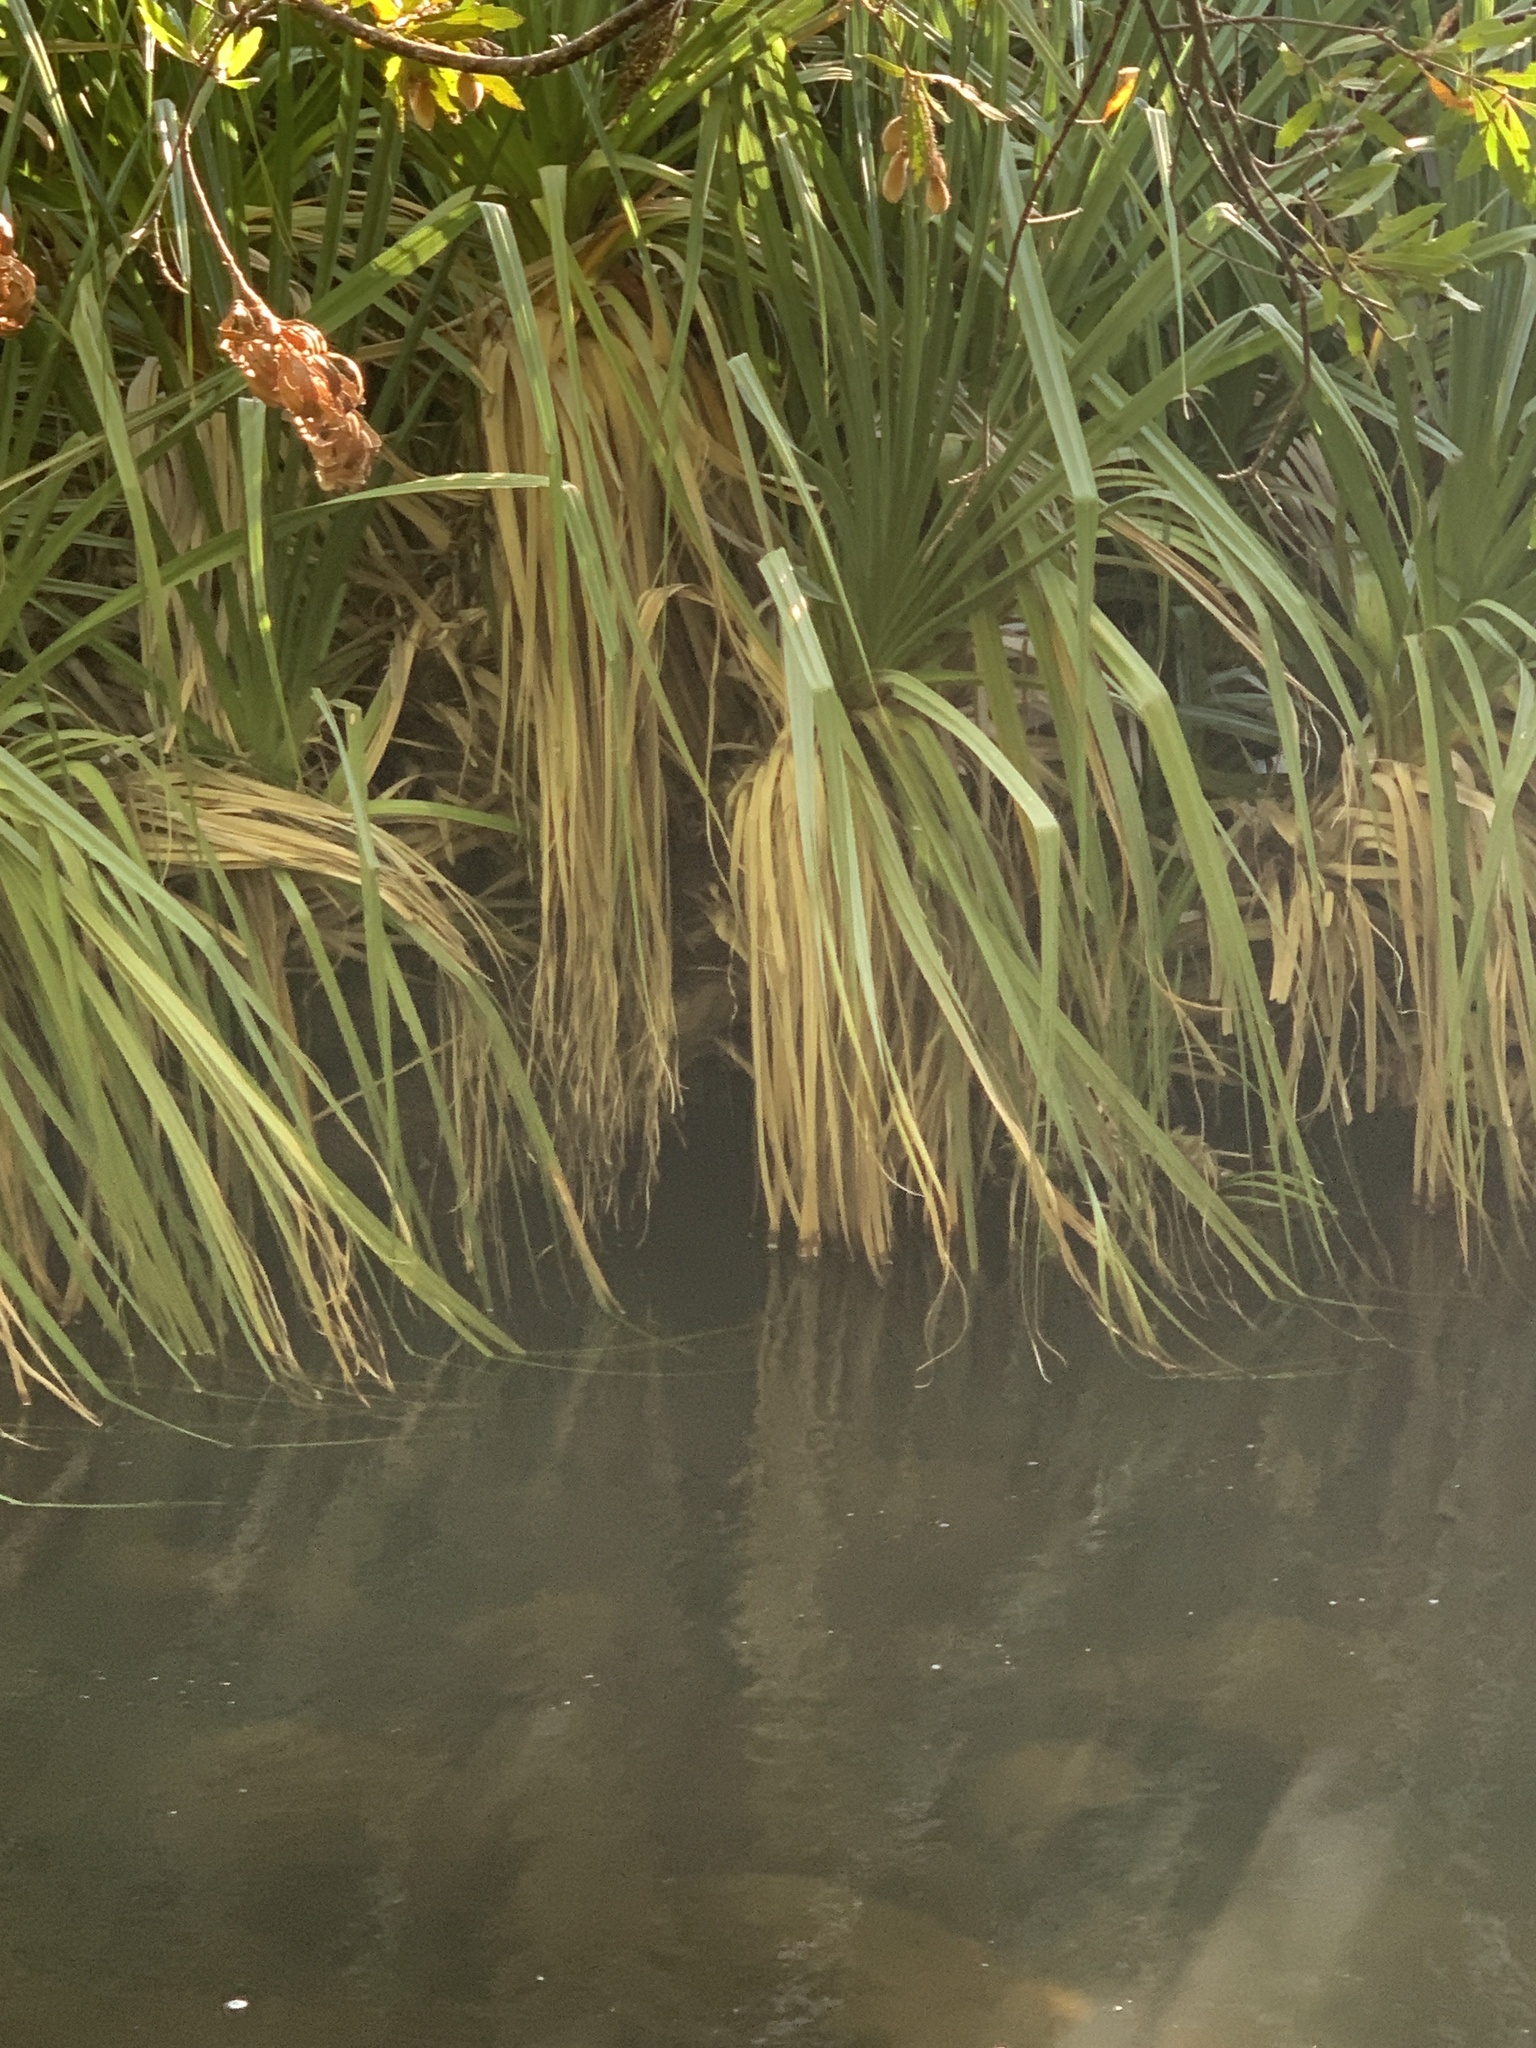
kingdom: Plantae
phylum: Tracheophyta
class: Liliopsida
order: Poales
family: Thurniaceae
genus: Prionium
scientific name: Prionium serratum
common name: Palmiet
